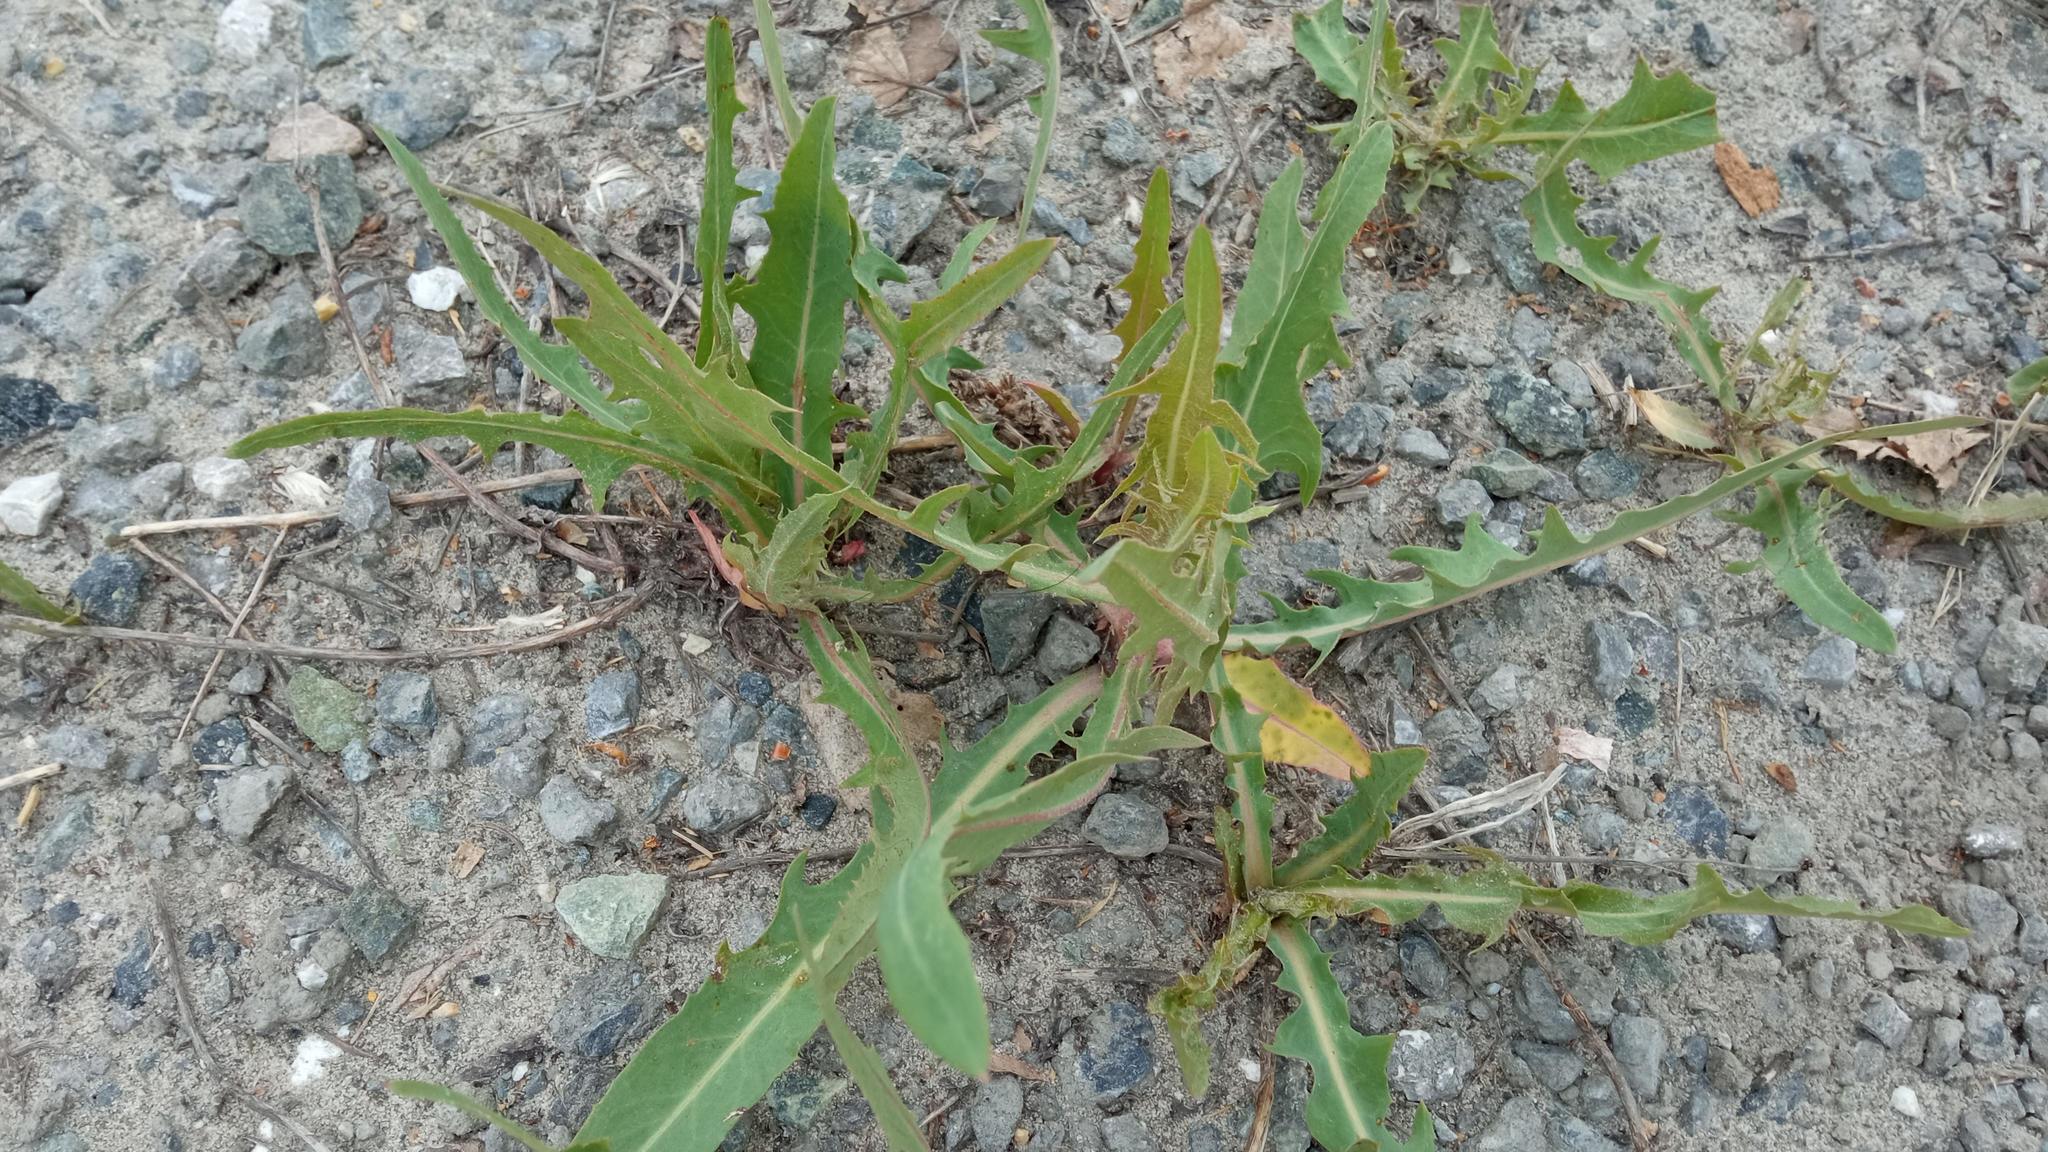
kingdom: Plantae
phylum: Tracheophyta
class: Magnoliopsida
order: Asterales
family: Asteraceae
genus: Lactuca
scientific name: Lactuca tatarica
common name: Blue lettuce
